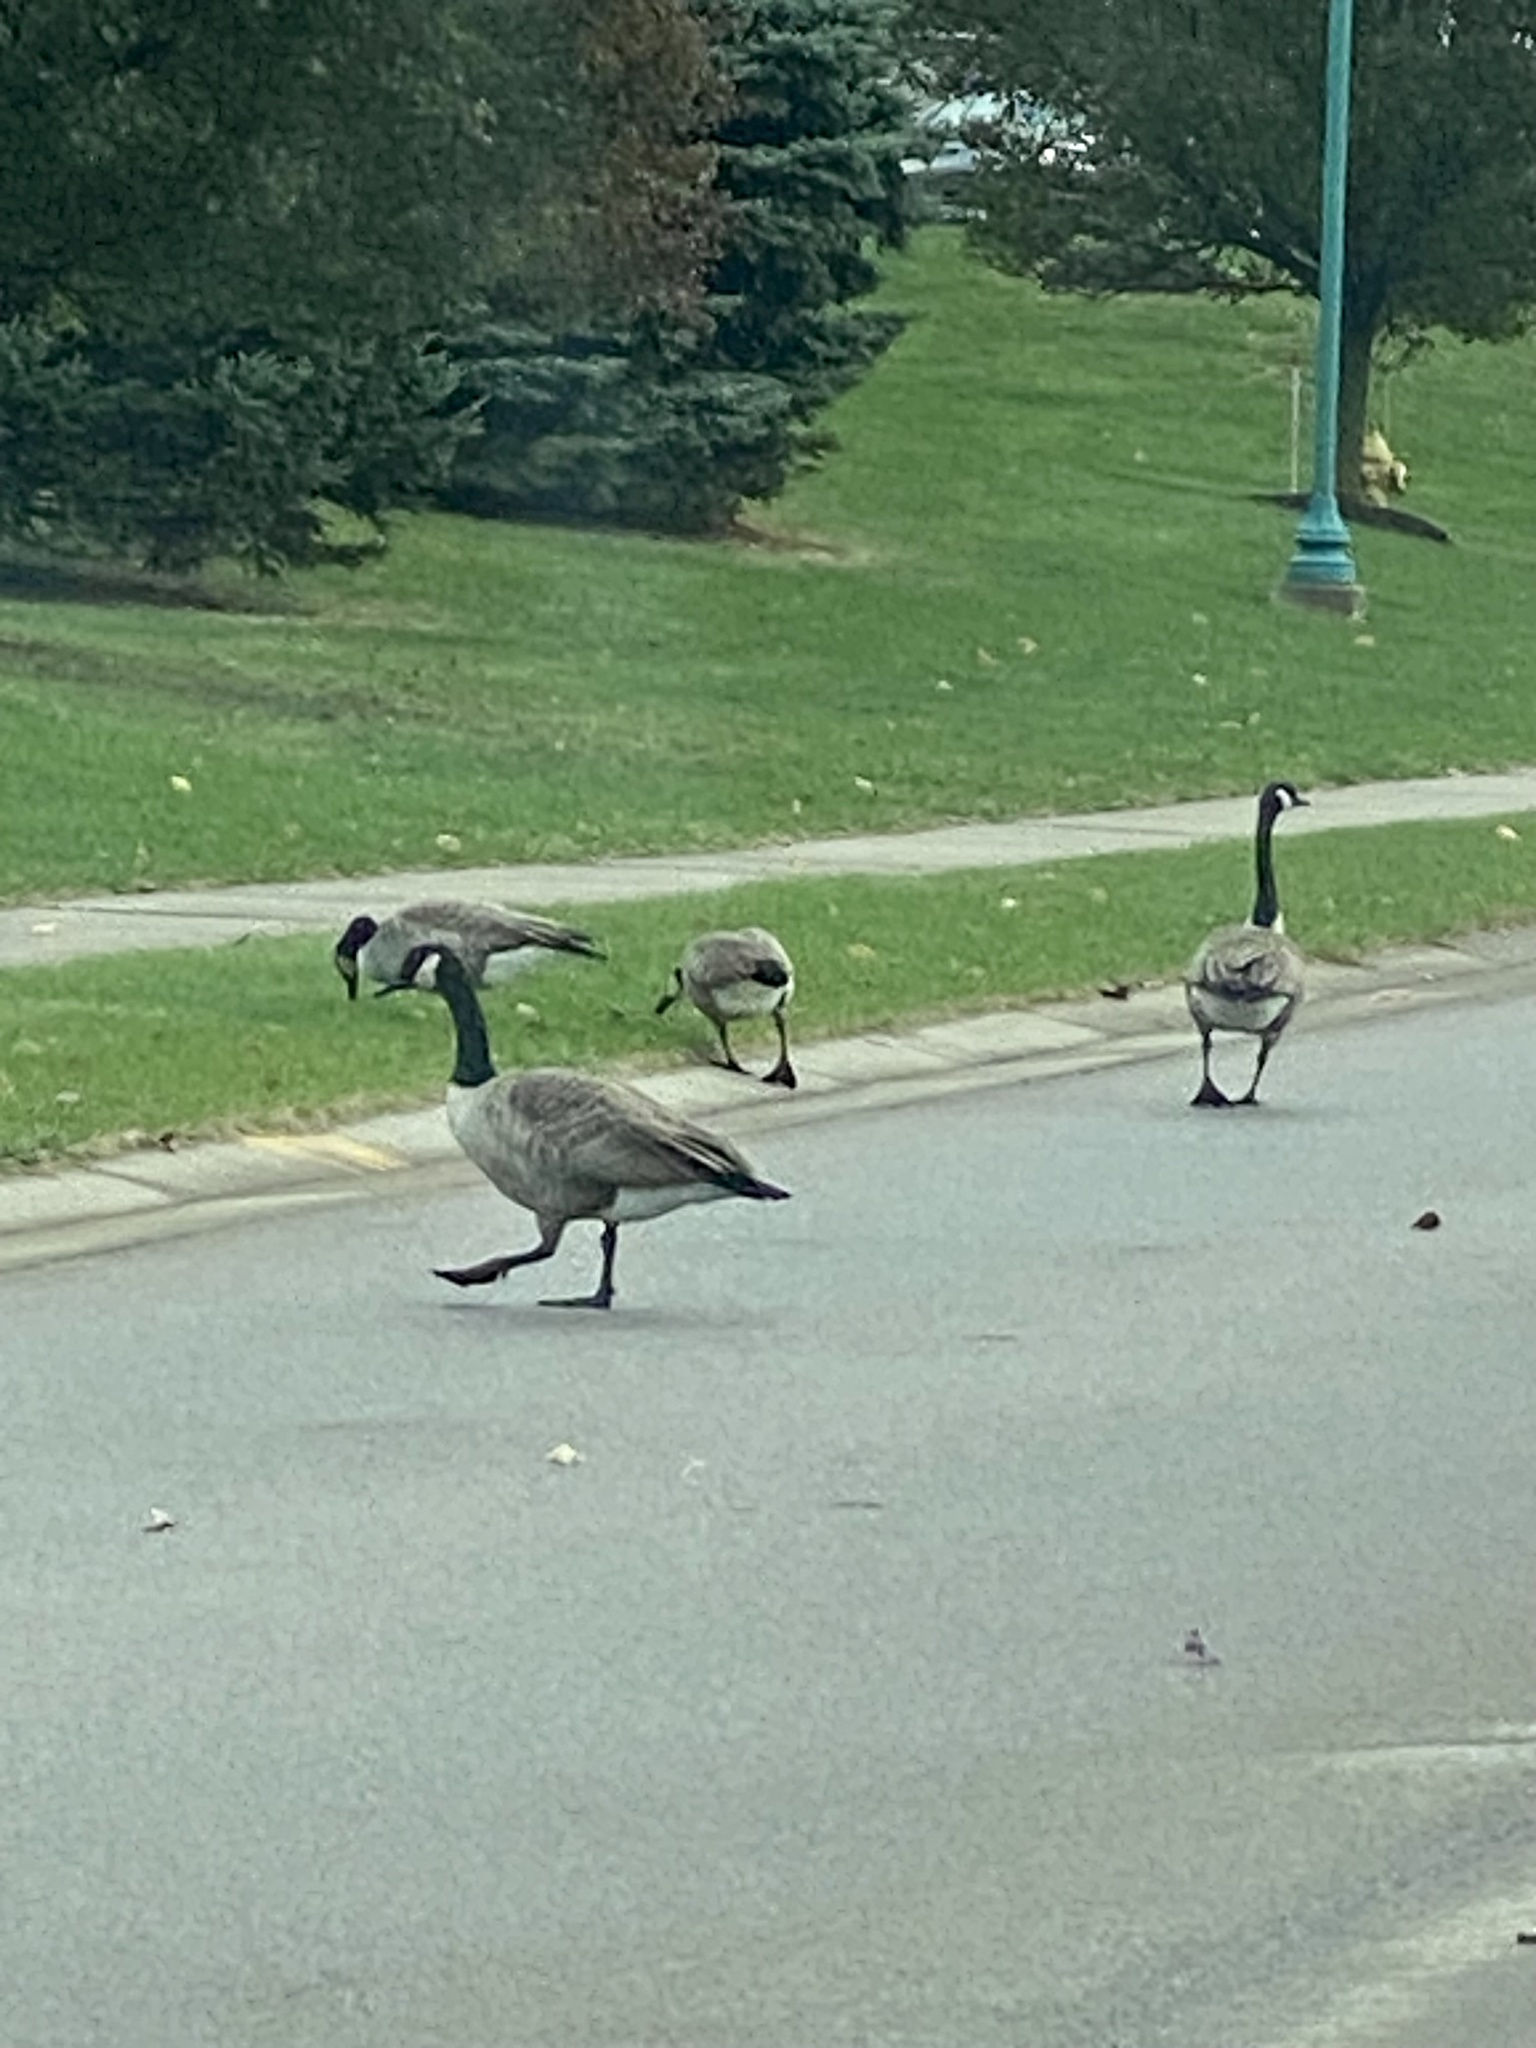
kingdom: Animalia
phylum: Chordata
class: Aves
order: Anseriformes
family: Anatidae
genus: Branta
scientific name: Branta canadensis
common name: Canada goose
